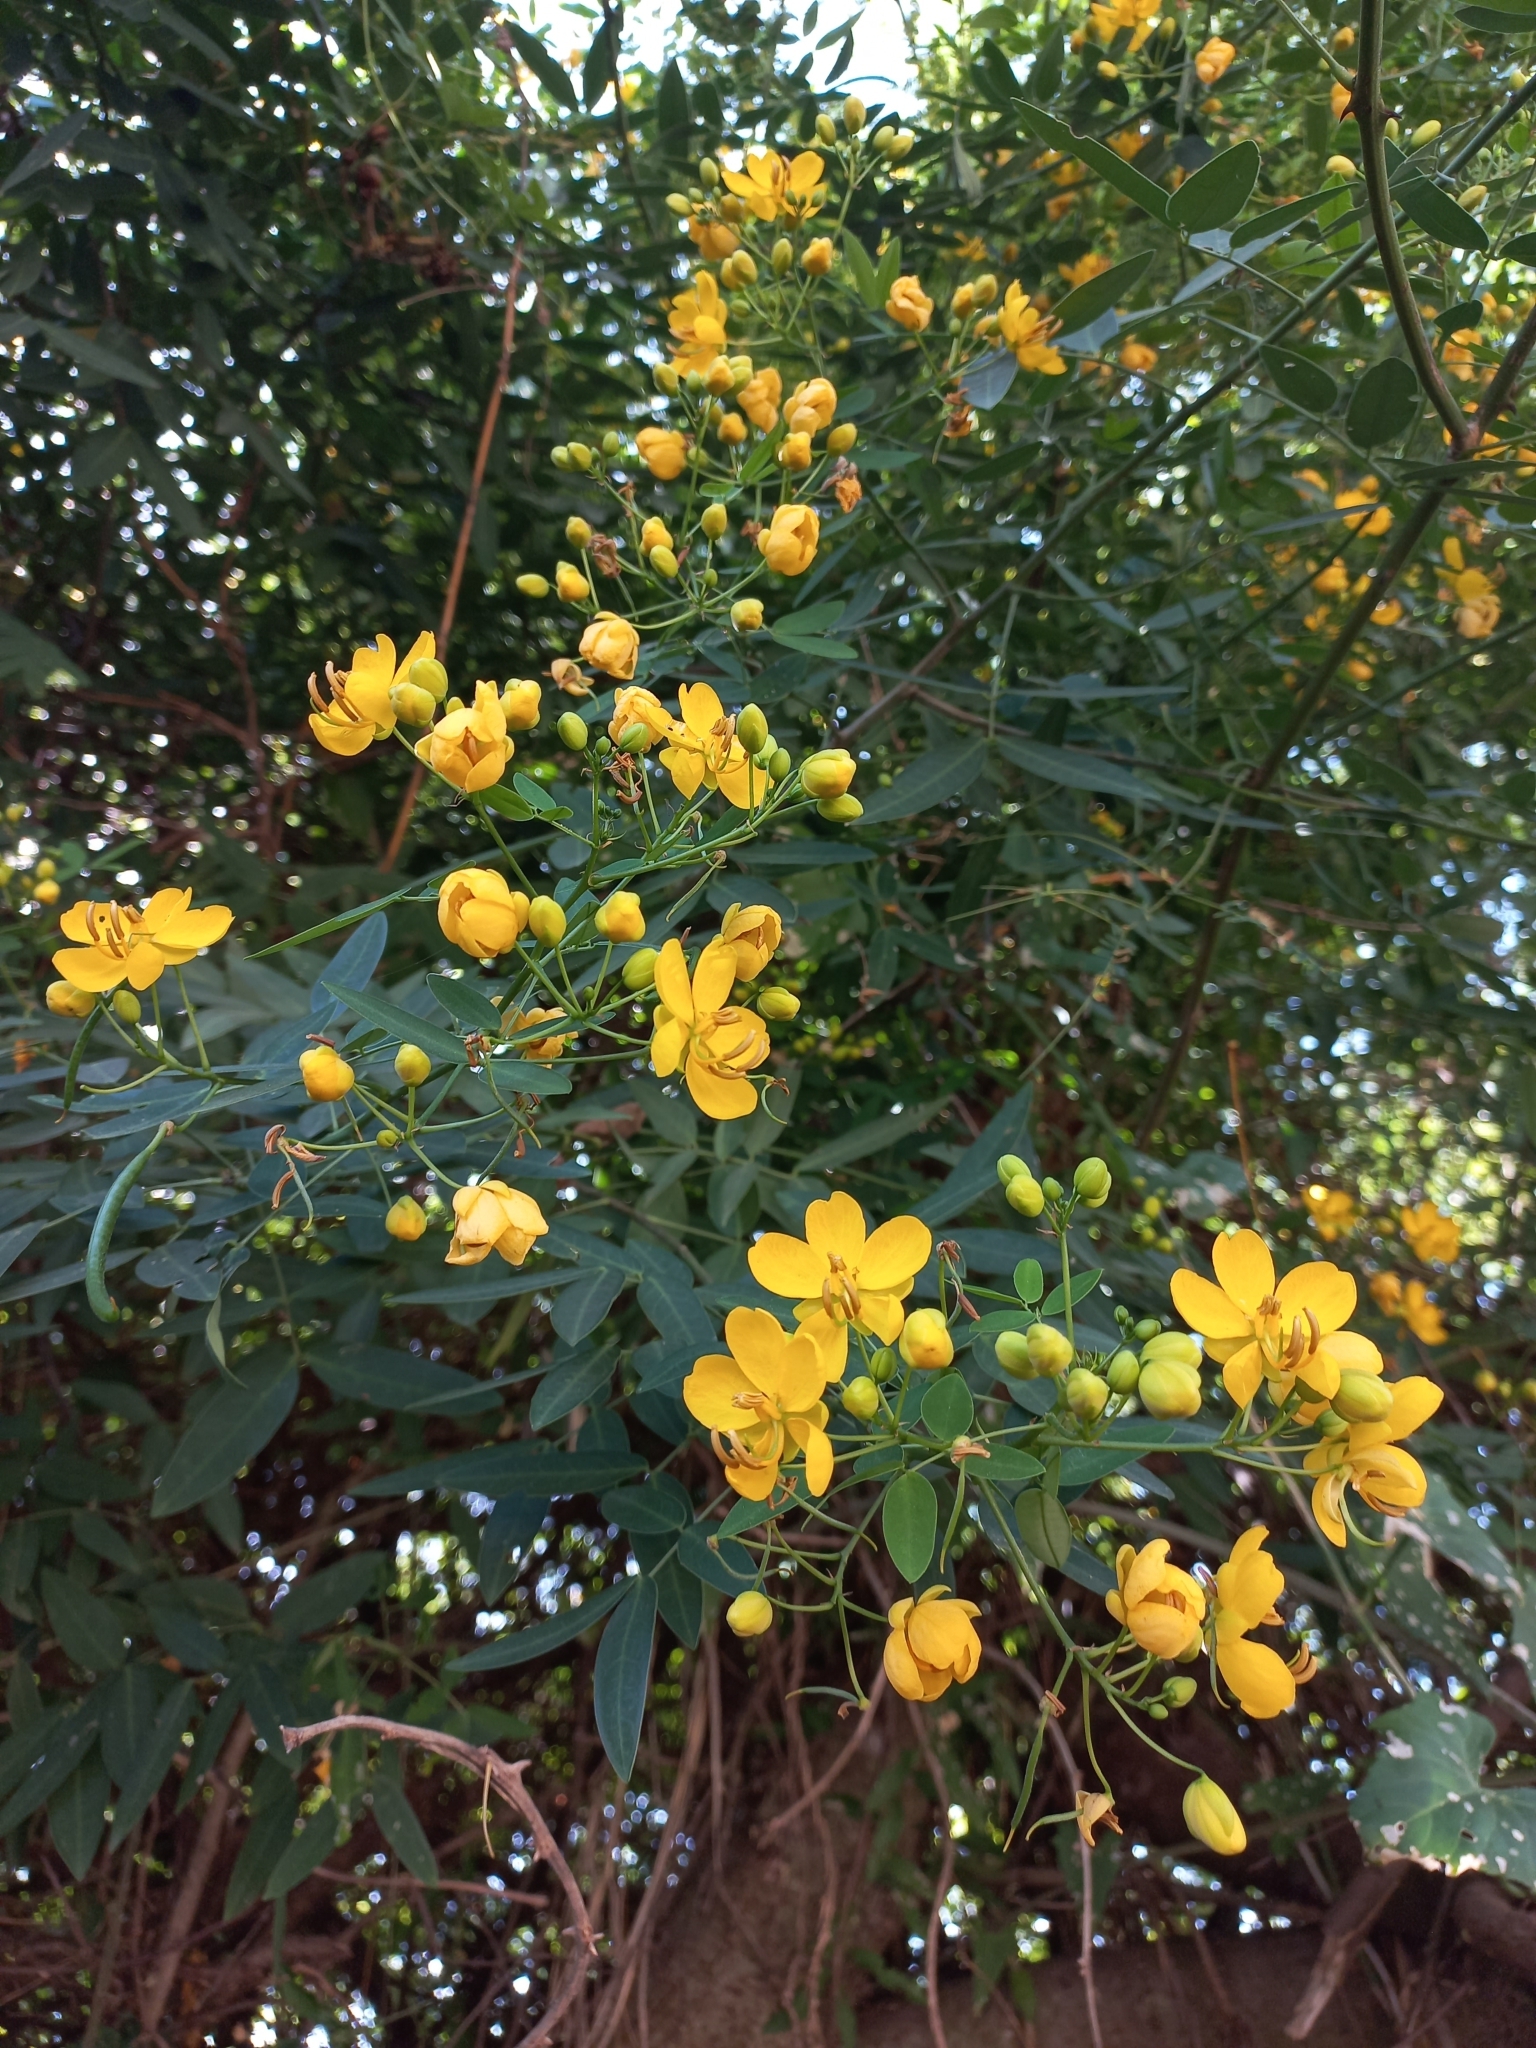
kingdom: Plantae
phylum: Tracheophyta
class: Magnoliopsida
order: Fabales
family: Fabaceae
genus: Senna
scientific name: Senna corymbosa
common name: Argentine senna
